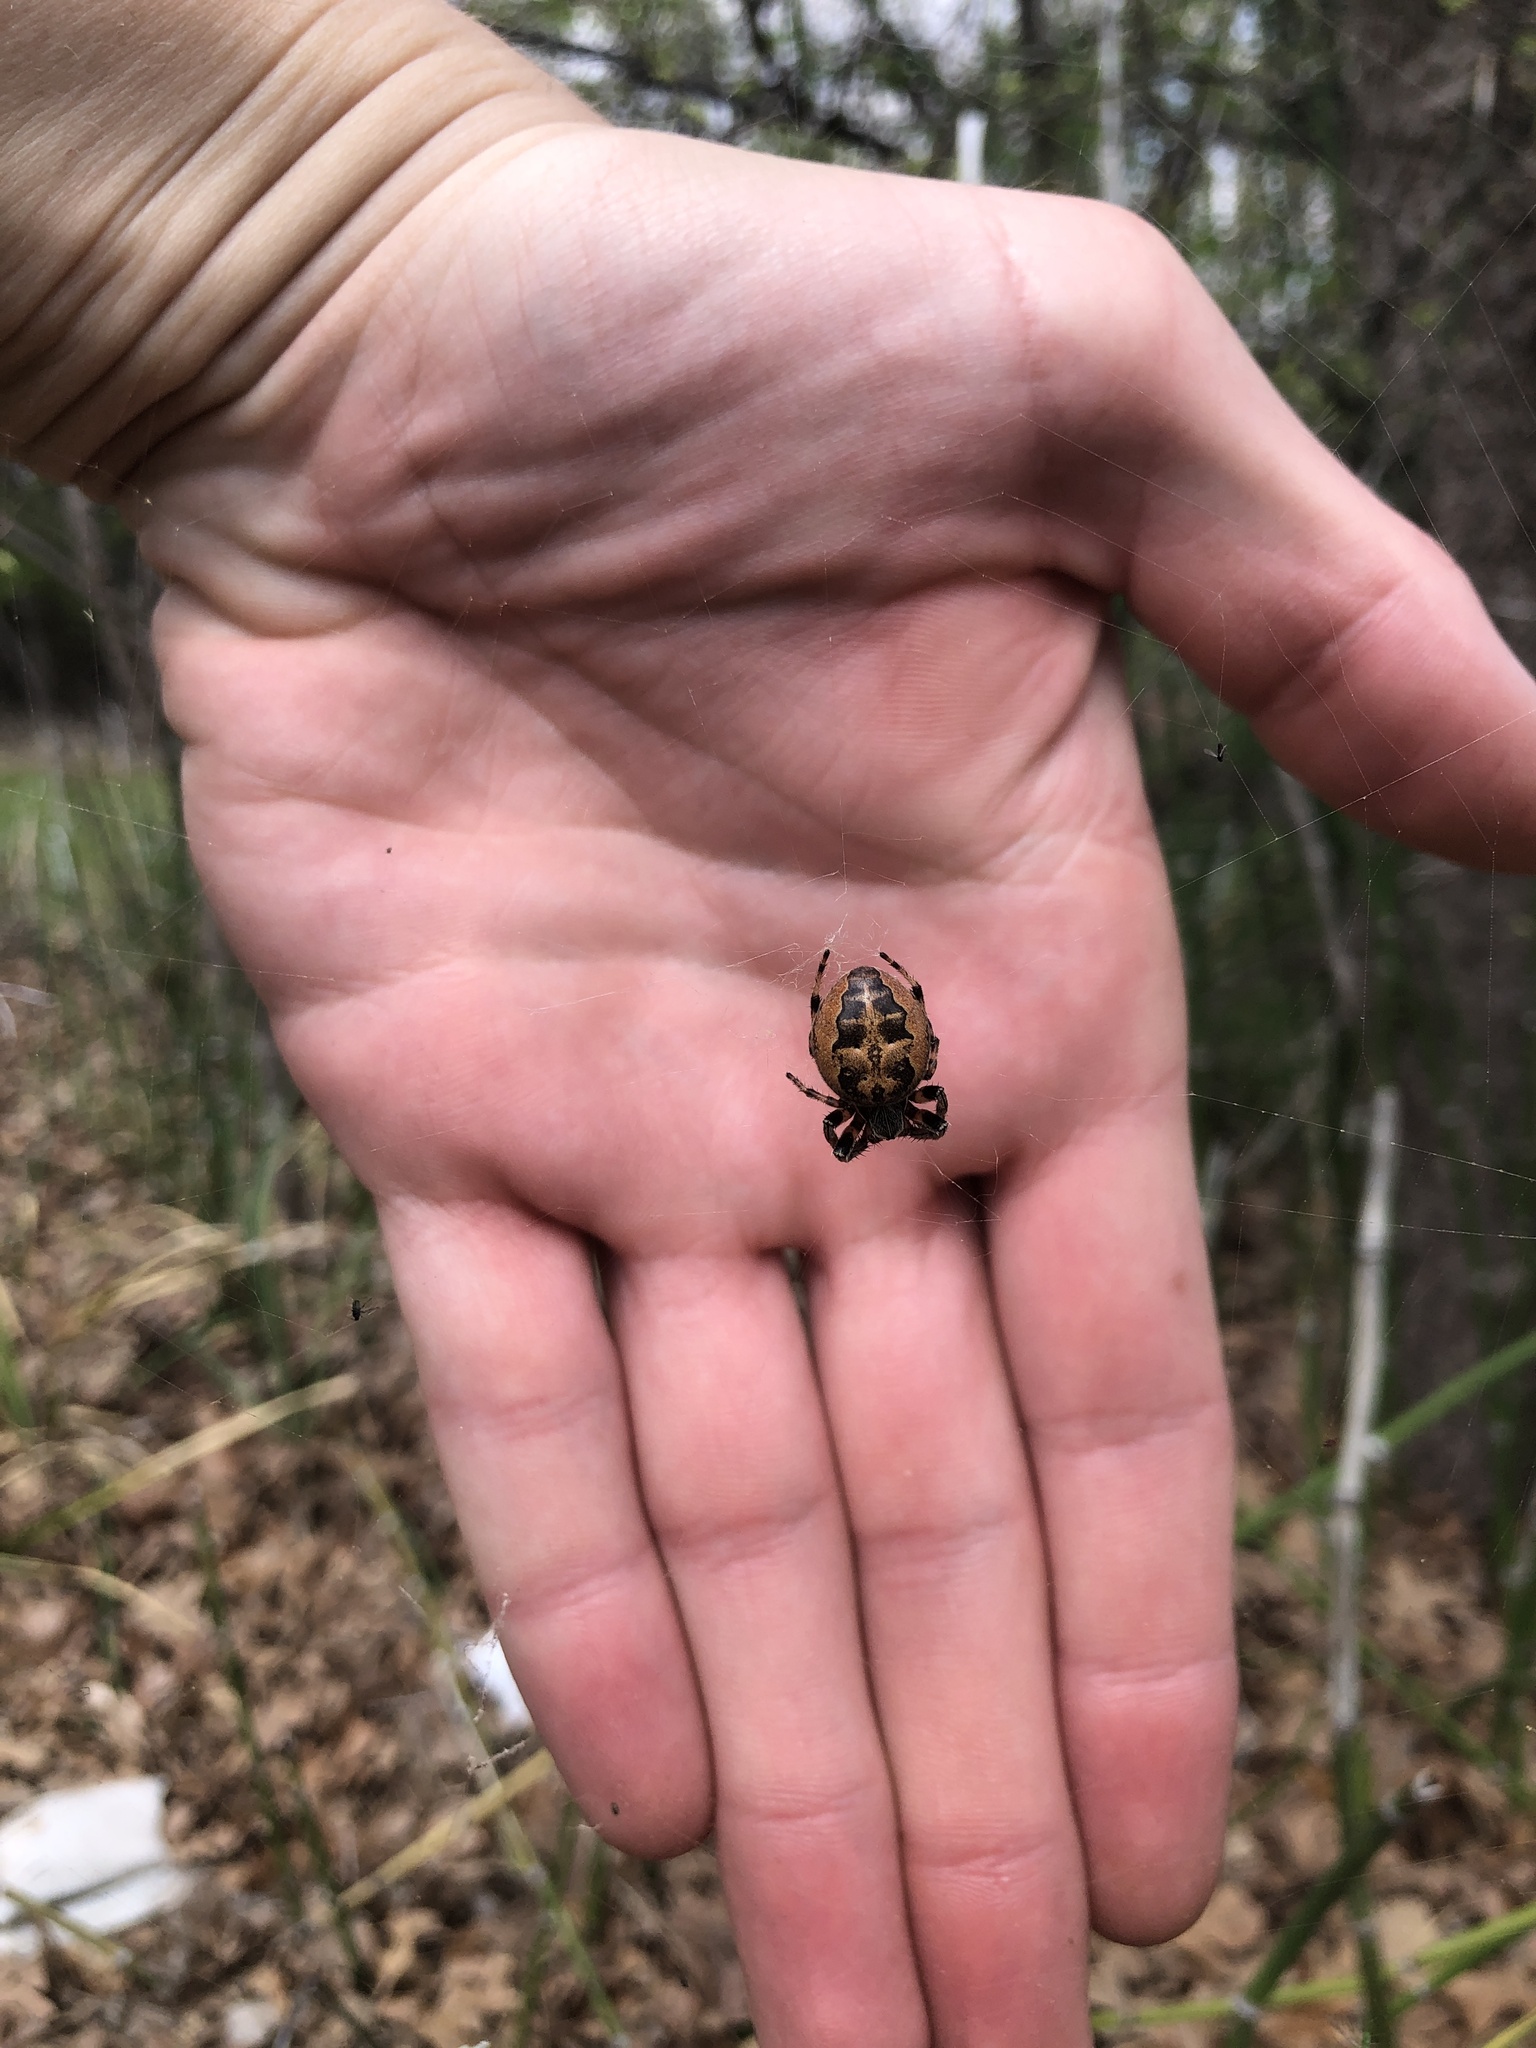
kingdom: Animalia
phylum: Arthropoda
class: Arachnida
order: Araneae
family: Araneidae
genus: Larinioides
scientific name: Larinioides cornutus
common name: Furrow orbweaver
